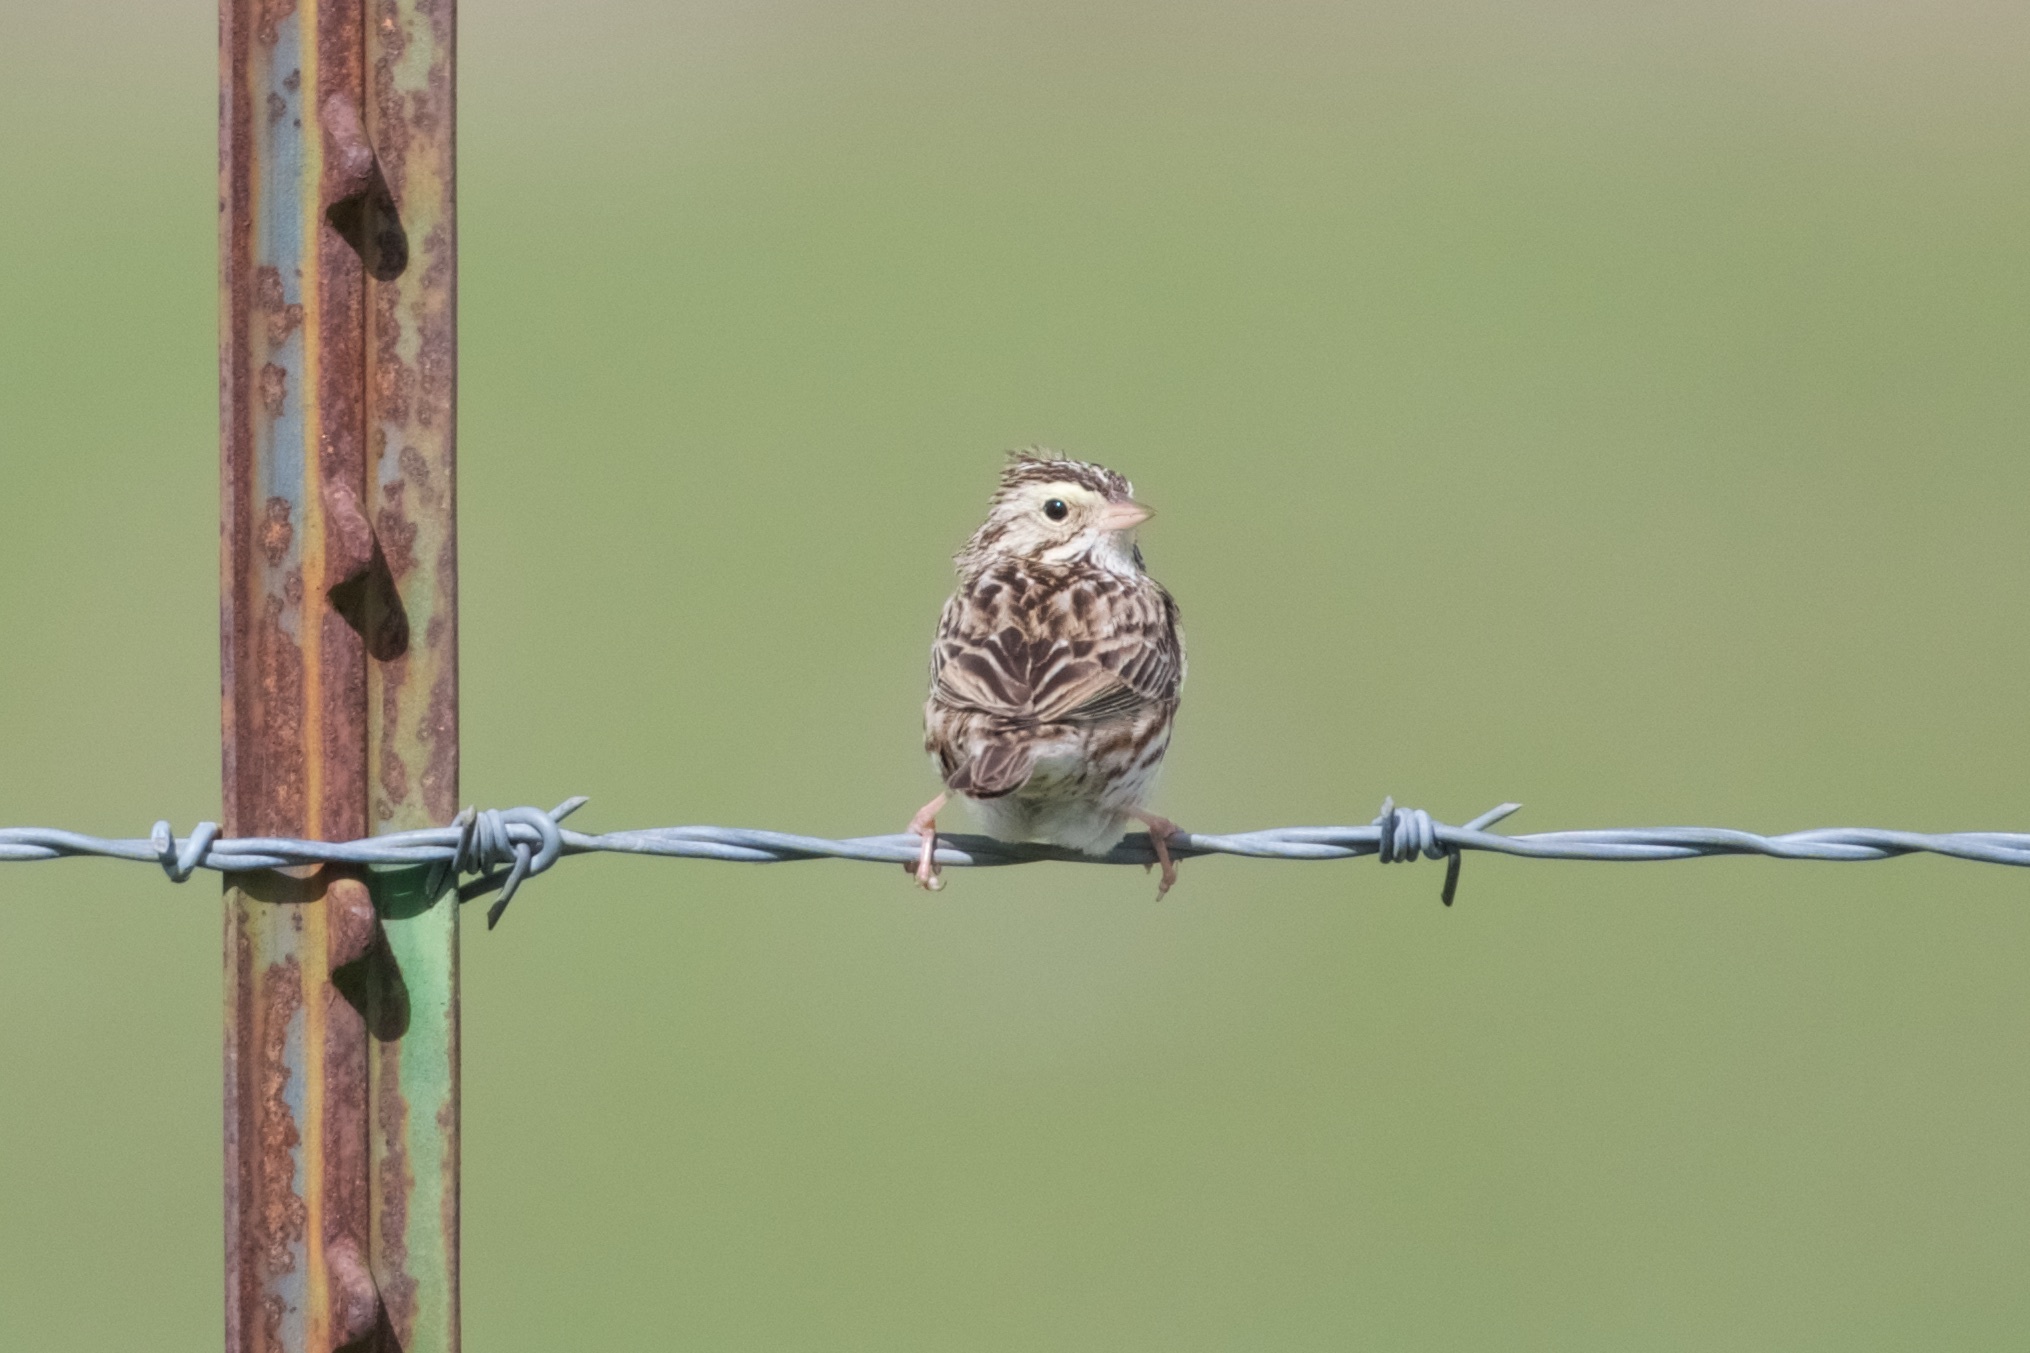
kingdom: Animalia
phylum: Chordata
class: Aves
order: Passeriformes
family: Passerellidae
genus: Passerculus
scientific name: Passerculus sandwichensis
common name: Savannah sparrow
